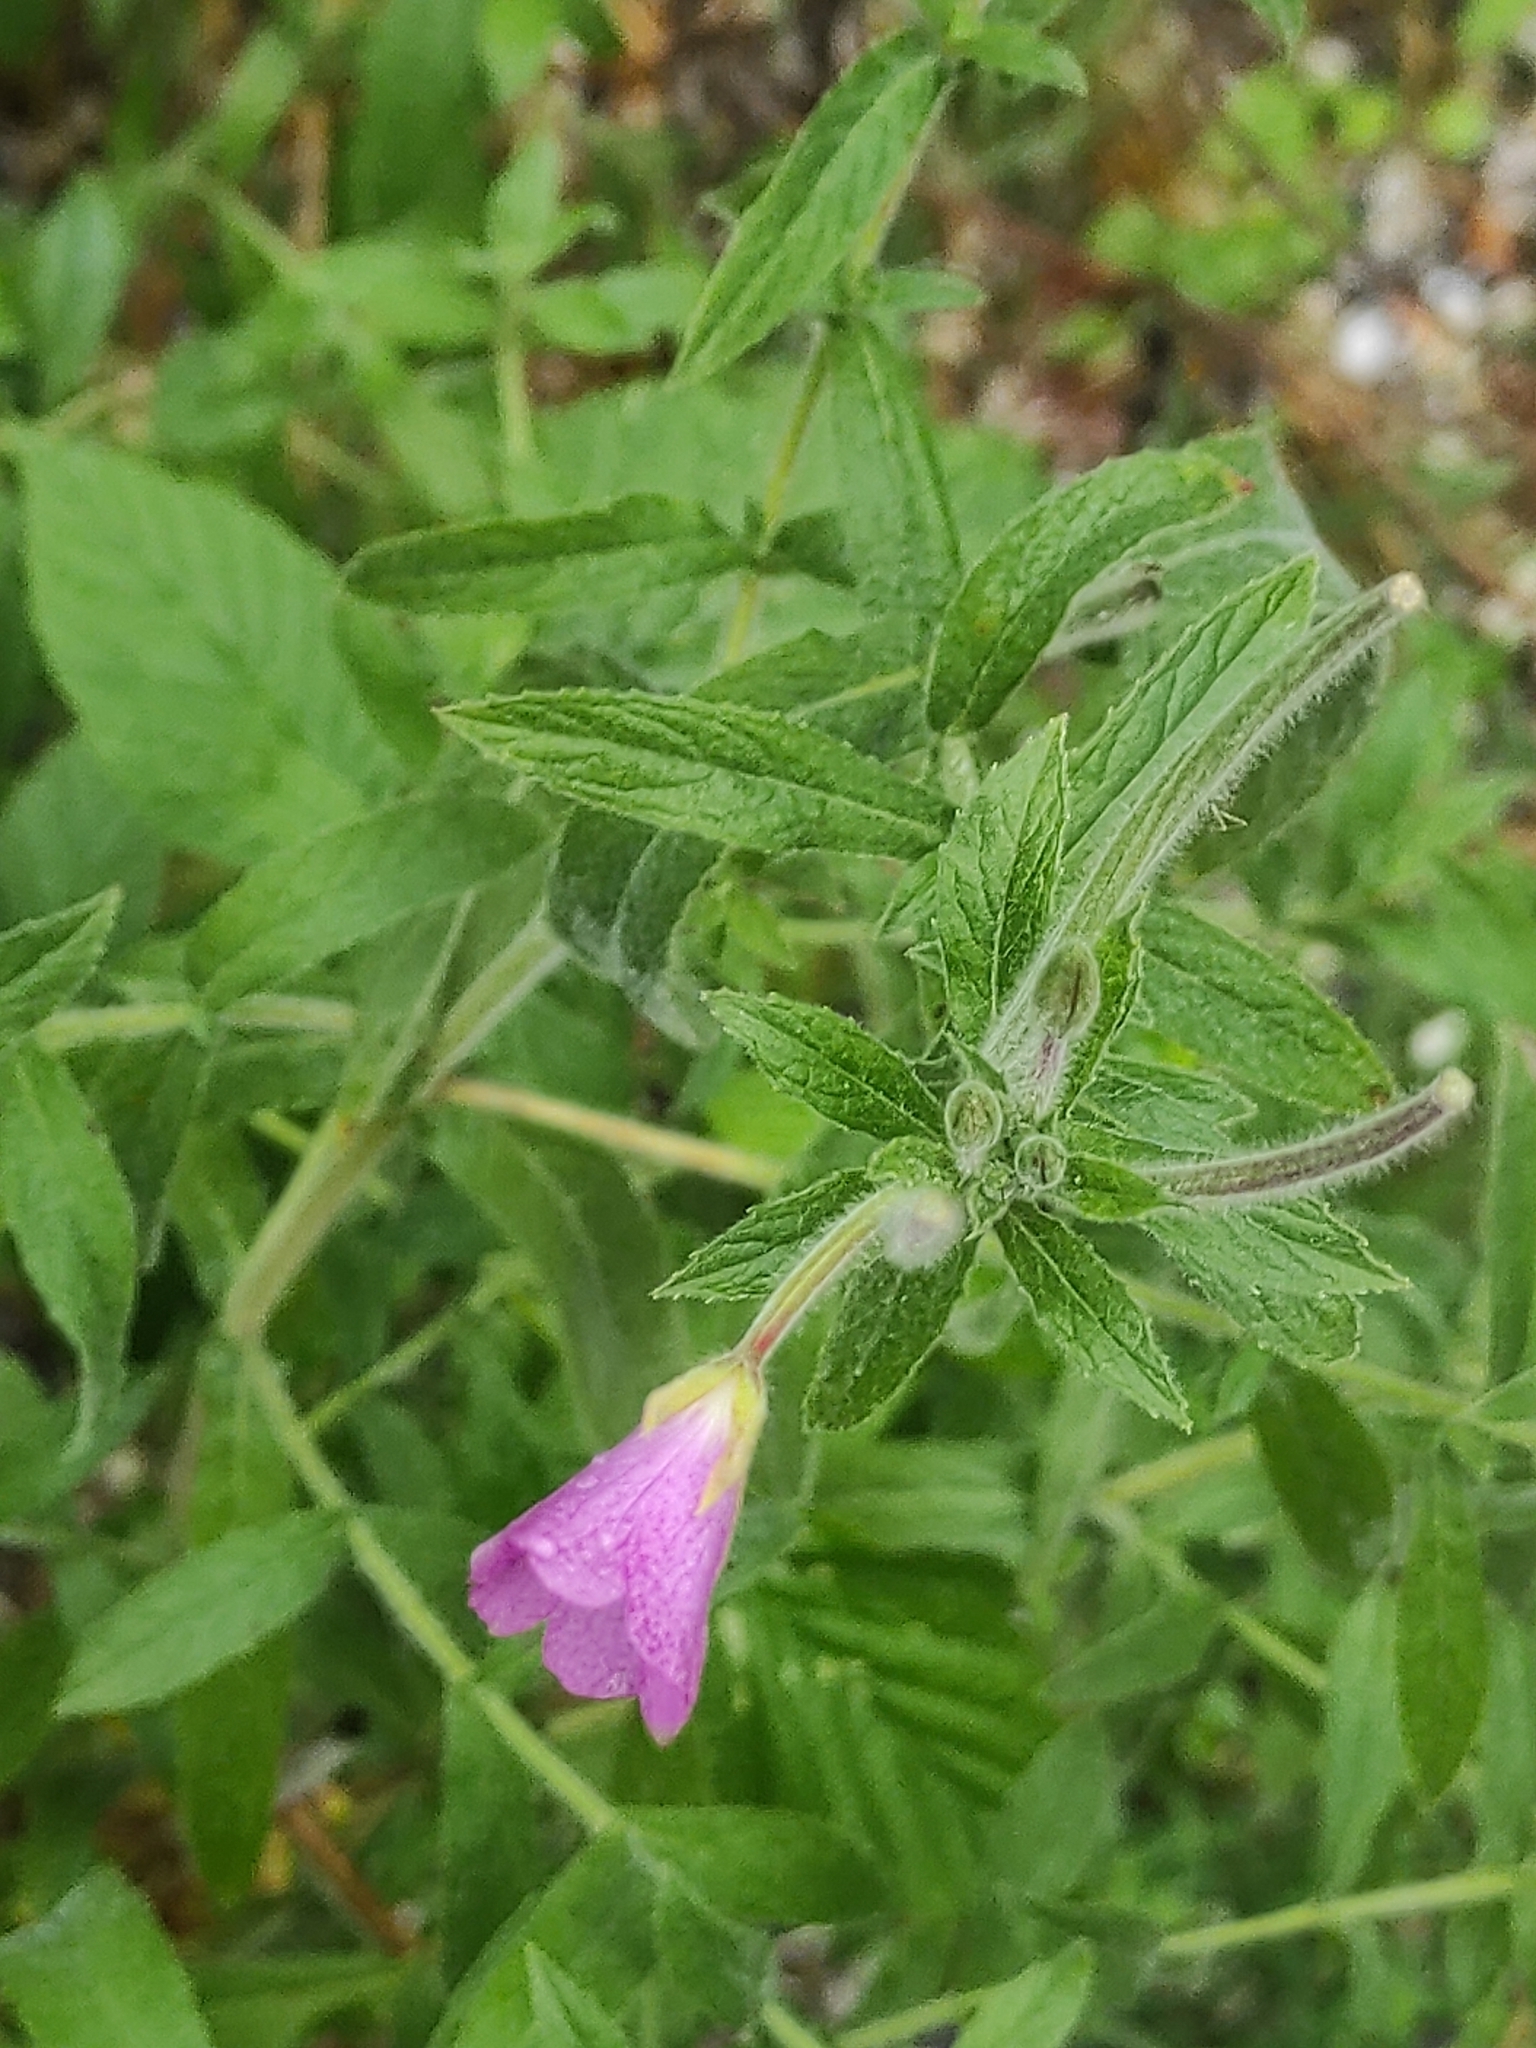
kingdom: Plantae
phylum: Tracheophyta
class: Magnoliopsida
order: Myrtales
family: Onagraceae
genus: Epilobium
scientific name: Epilobium hirsutum
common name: Great willowherb
